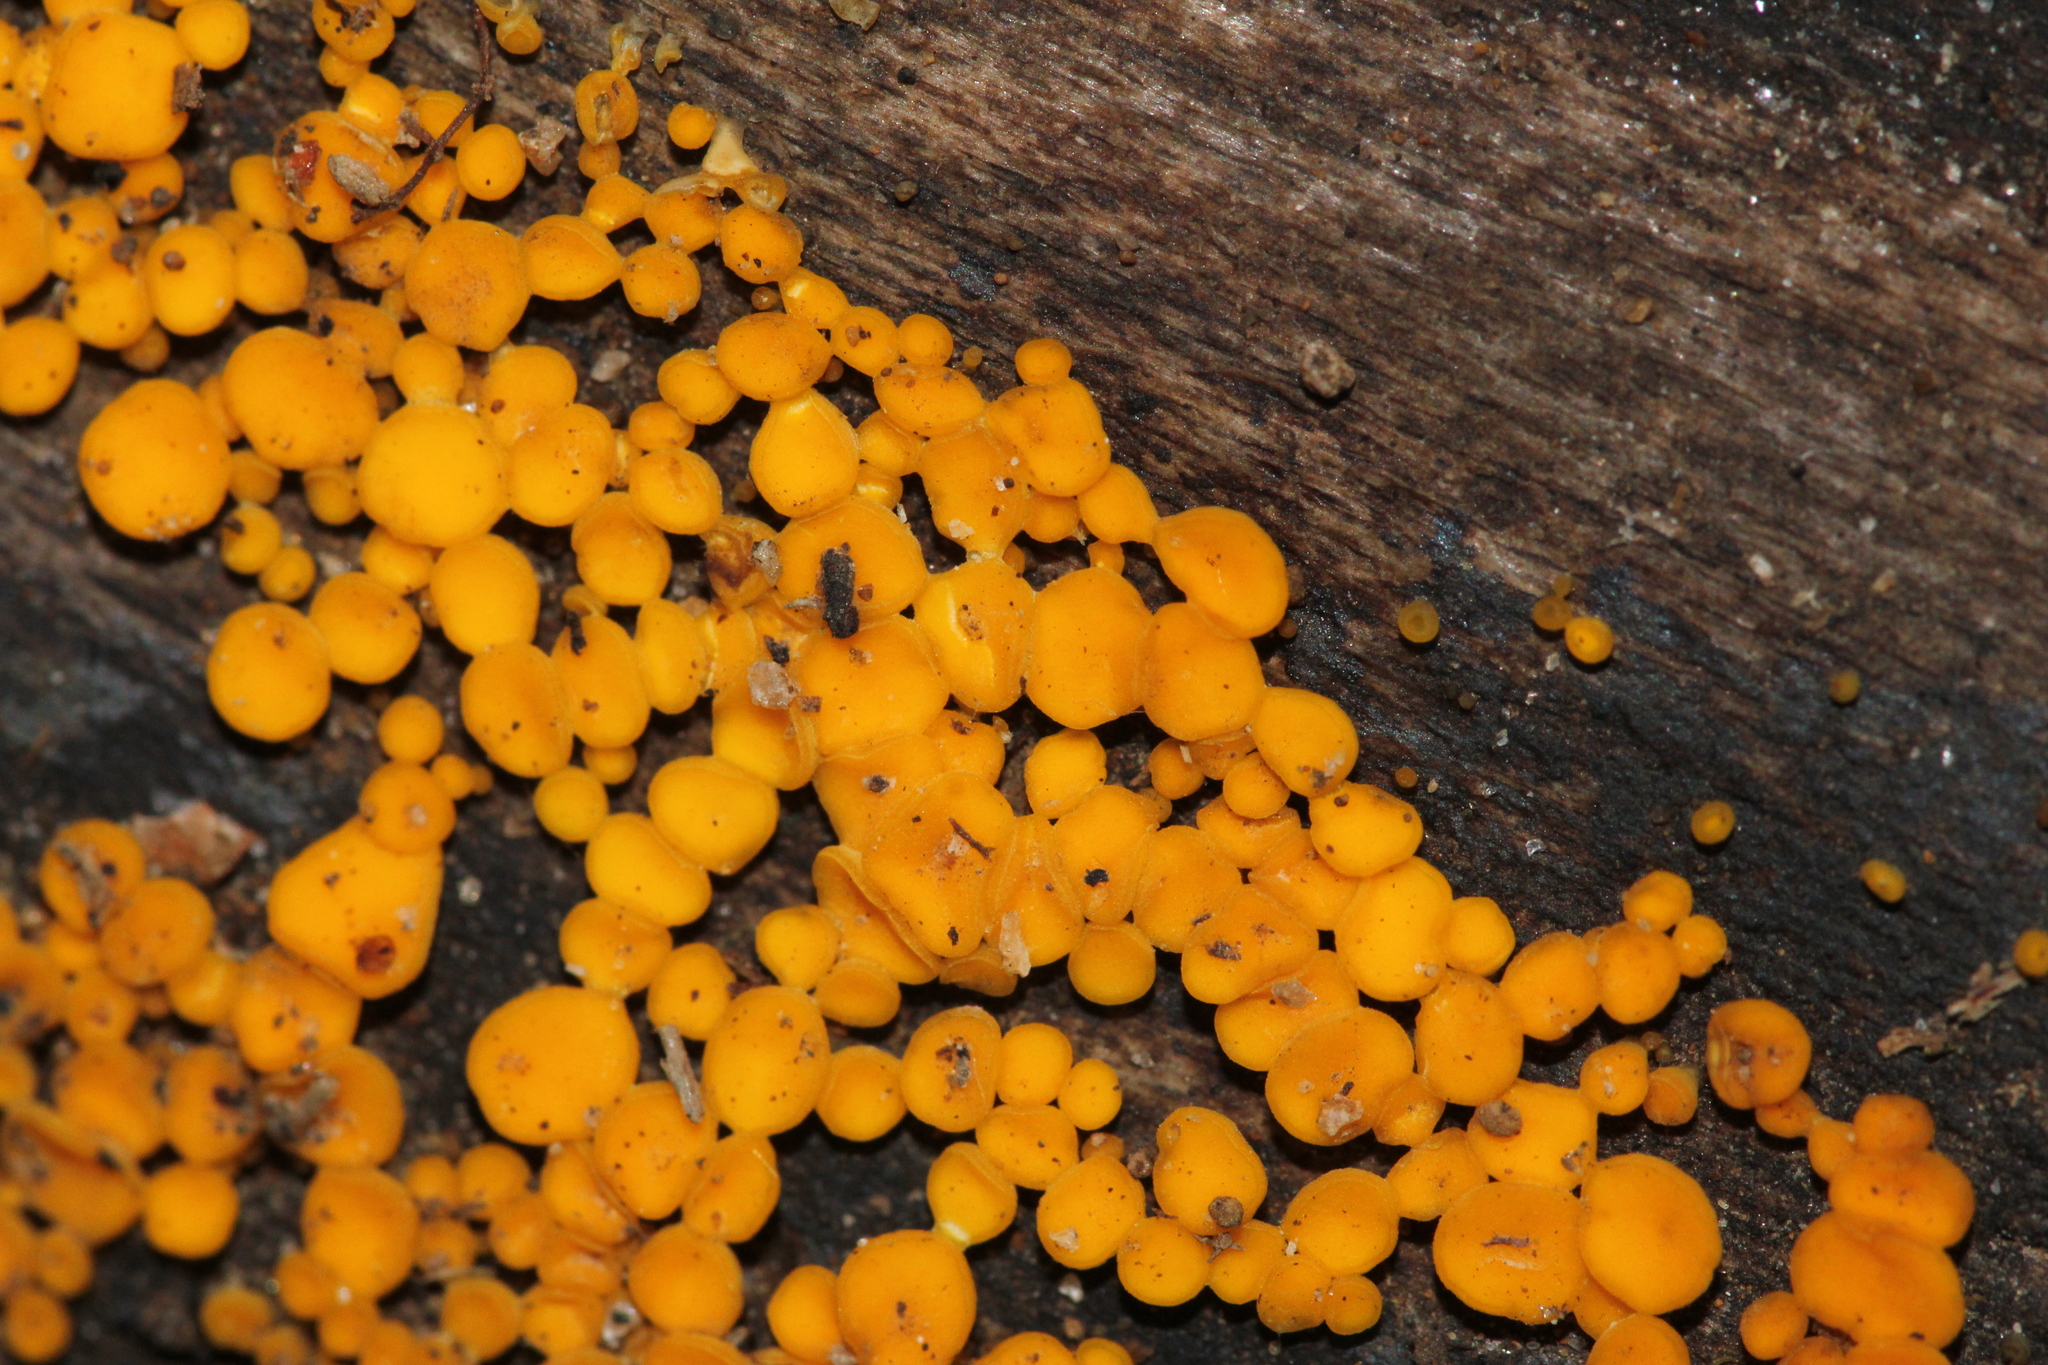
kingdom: Fungi
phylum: Ascomycota
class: Leotiomycetes
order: Helotiales
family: Pezizellaceae
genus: Calycina
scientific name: Calycina citrina
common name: Yellow fairy cups
